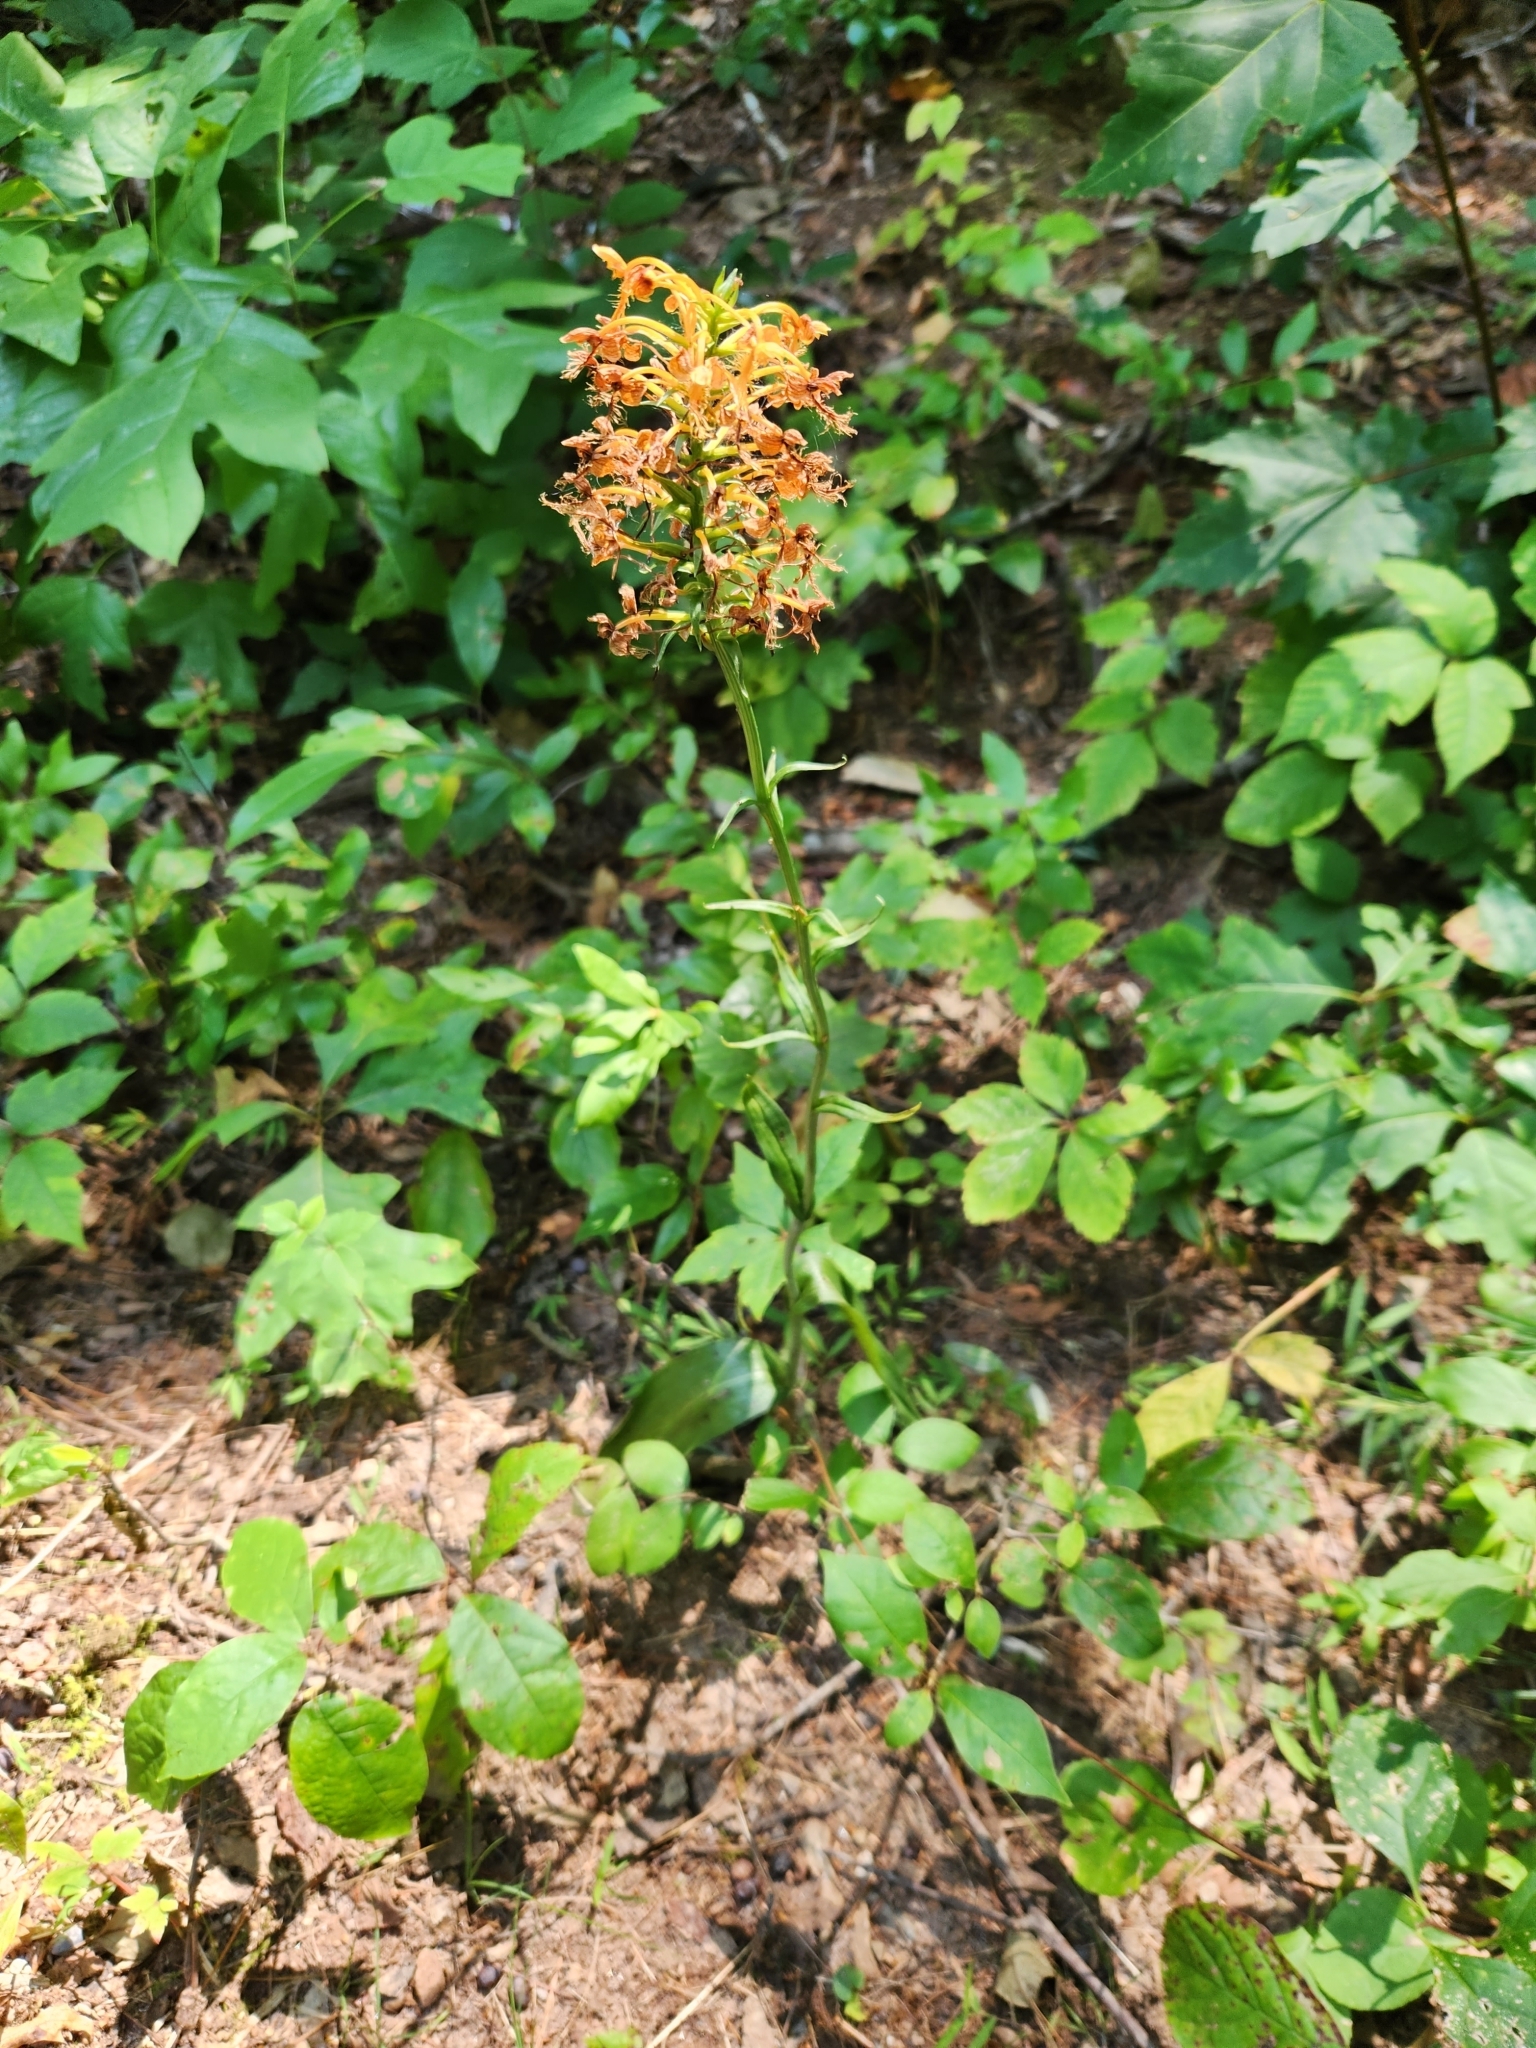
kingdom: Plantae
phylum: Tracheophyta
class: Liliopsida
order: Asparagales
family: Orchidaceae
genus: Platanthera
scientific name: Platanthera ciliaris
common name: Yellow fringed orchid
